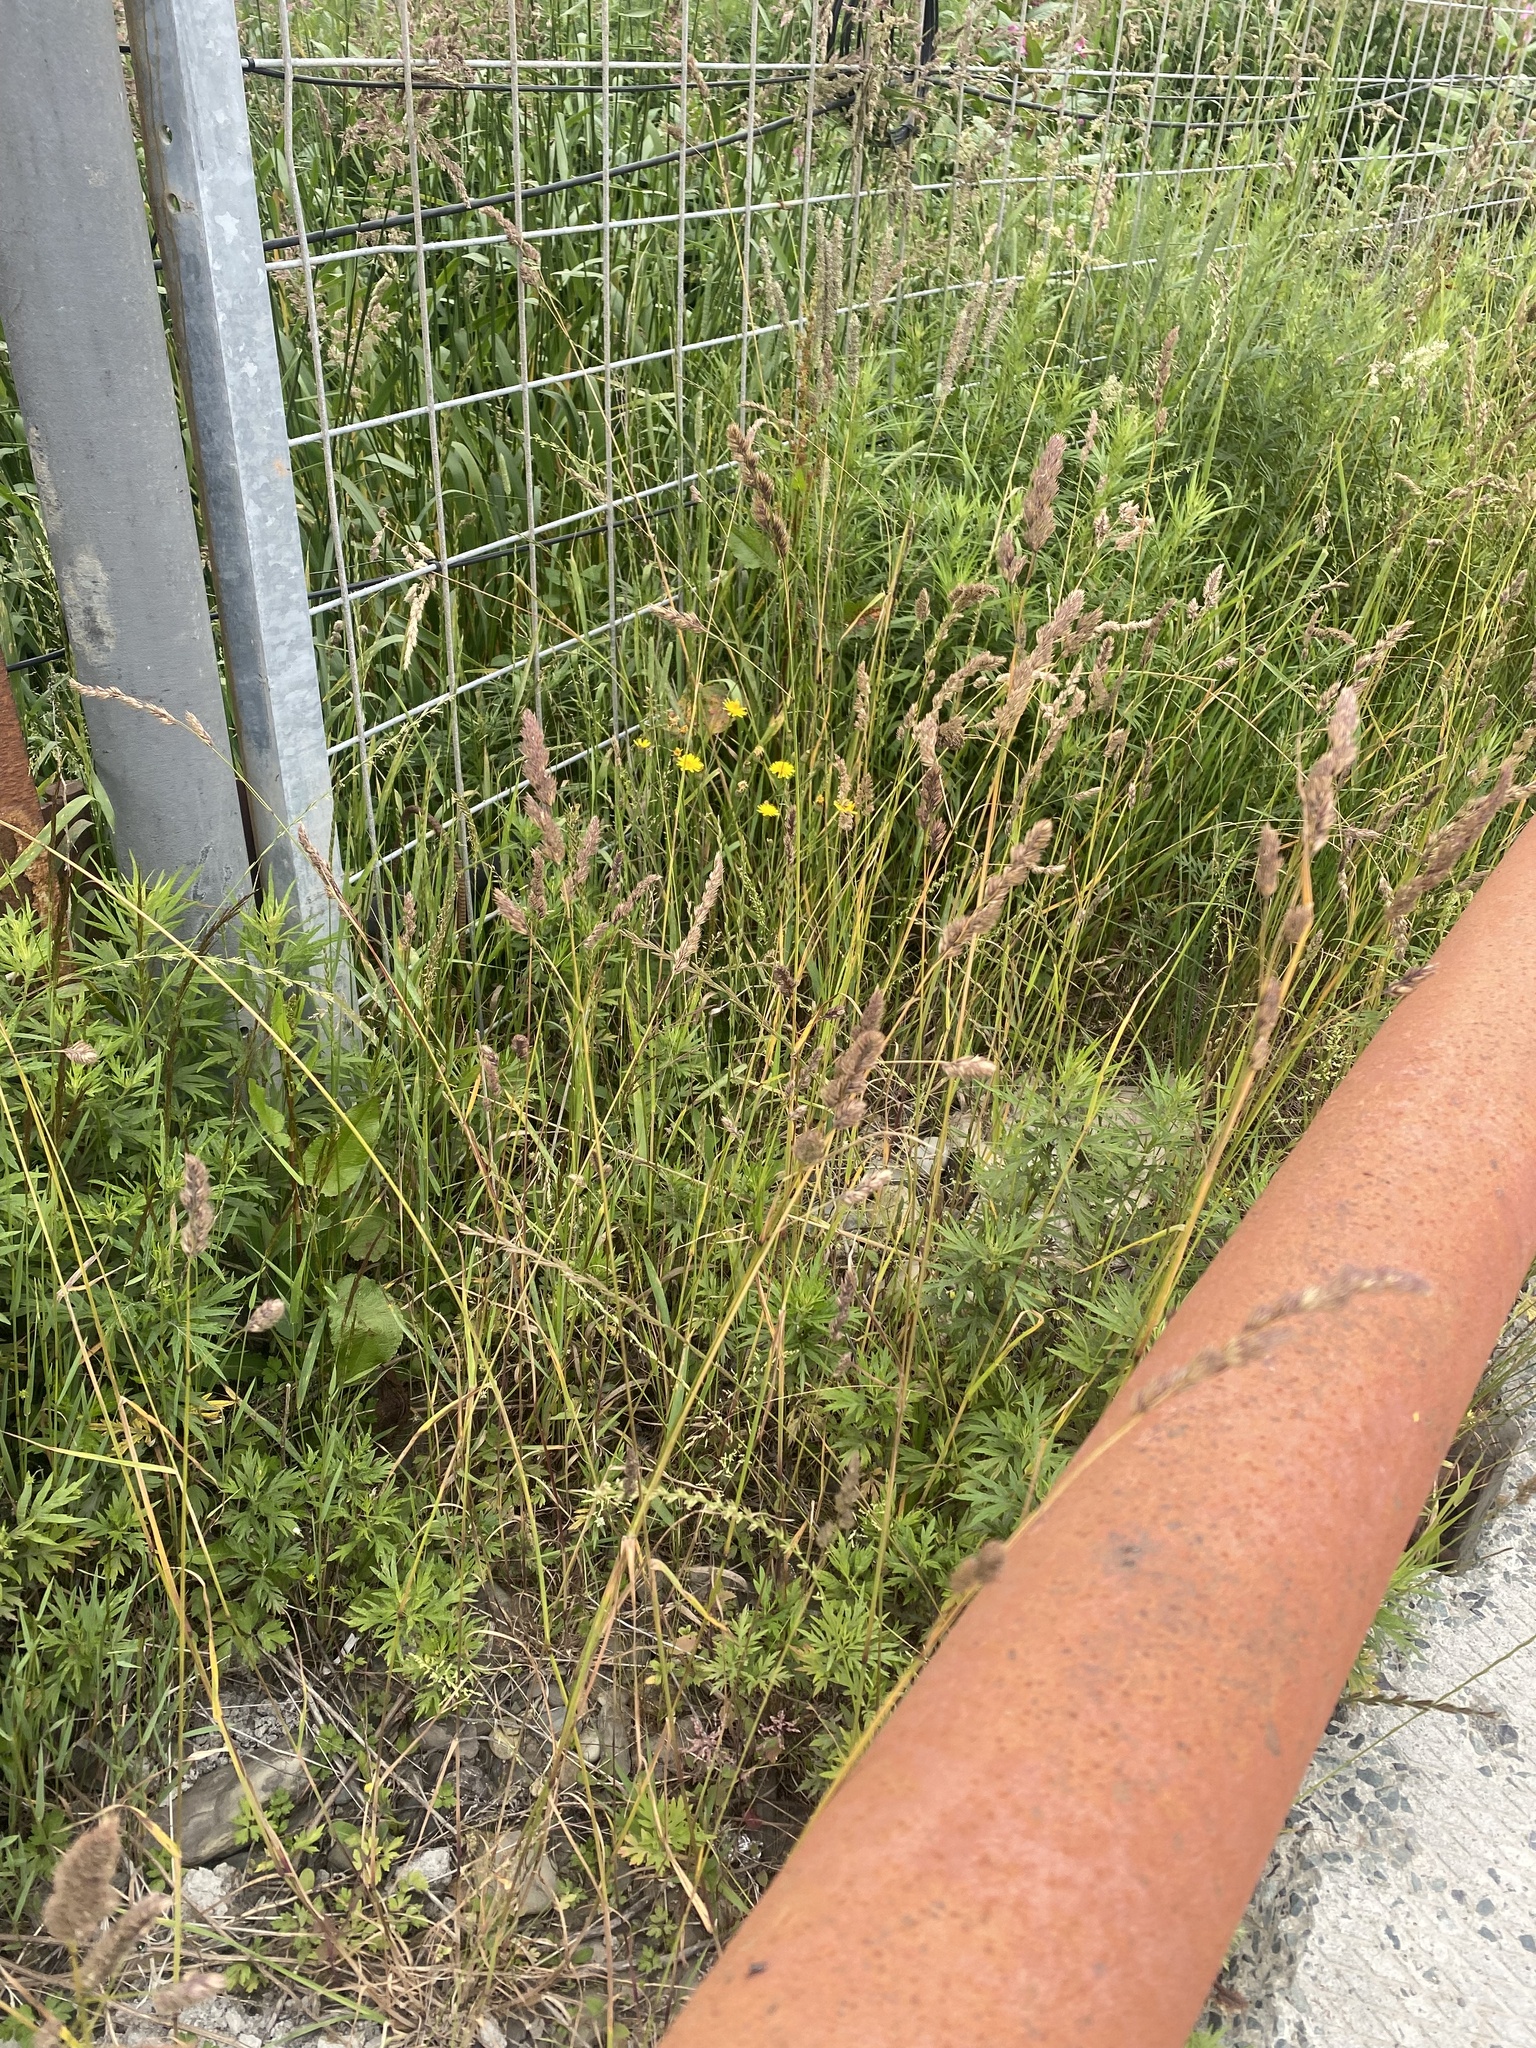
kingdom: Plantae
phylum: Tracheophyta
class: Liliopsida
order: Poales
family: Poaceae
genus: Dactylis
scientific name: Dactylis glomerata
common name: Orchardgrass
